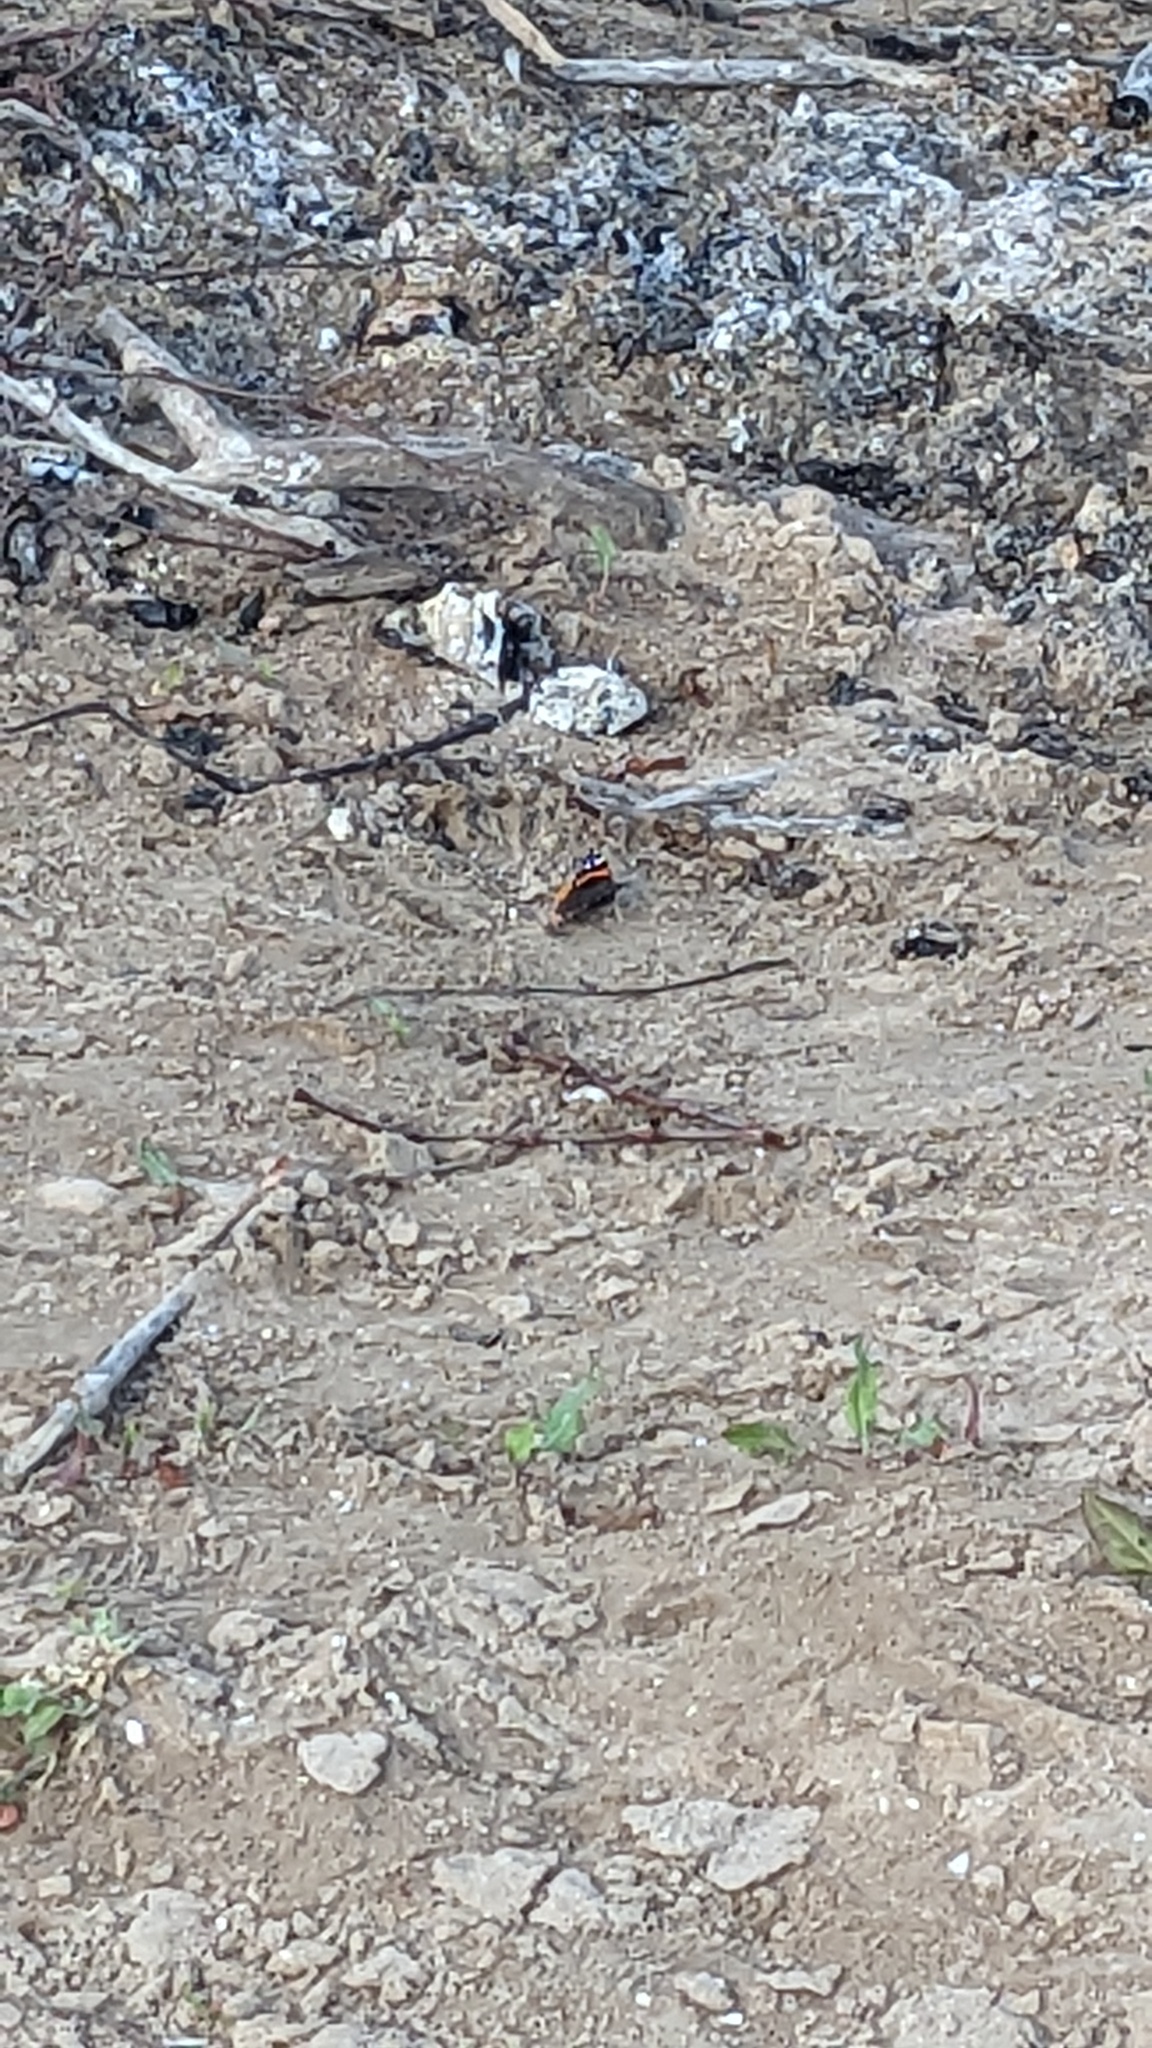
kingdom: Animalia
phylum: Arthropoda
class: Insecta
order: Lepidoptera
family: Nymphalidae
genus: Vanessa
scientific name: Vanessa atalanta
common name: Red admiral
